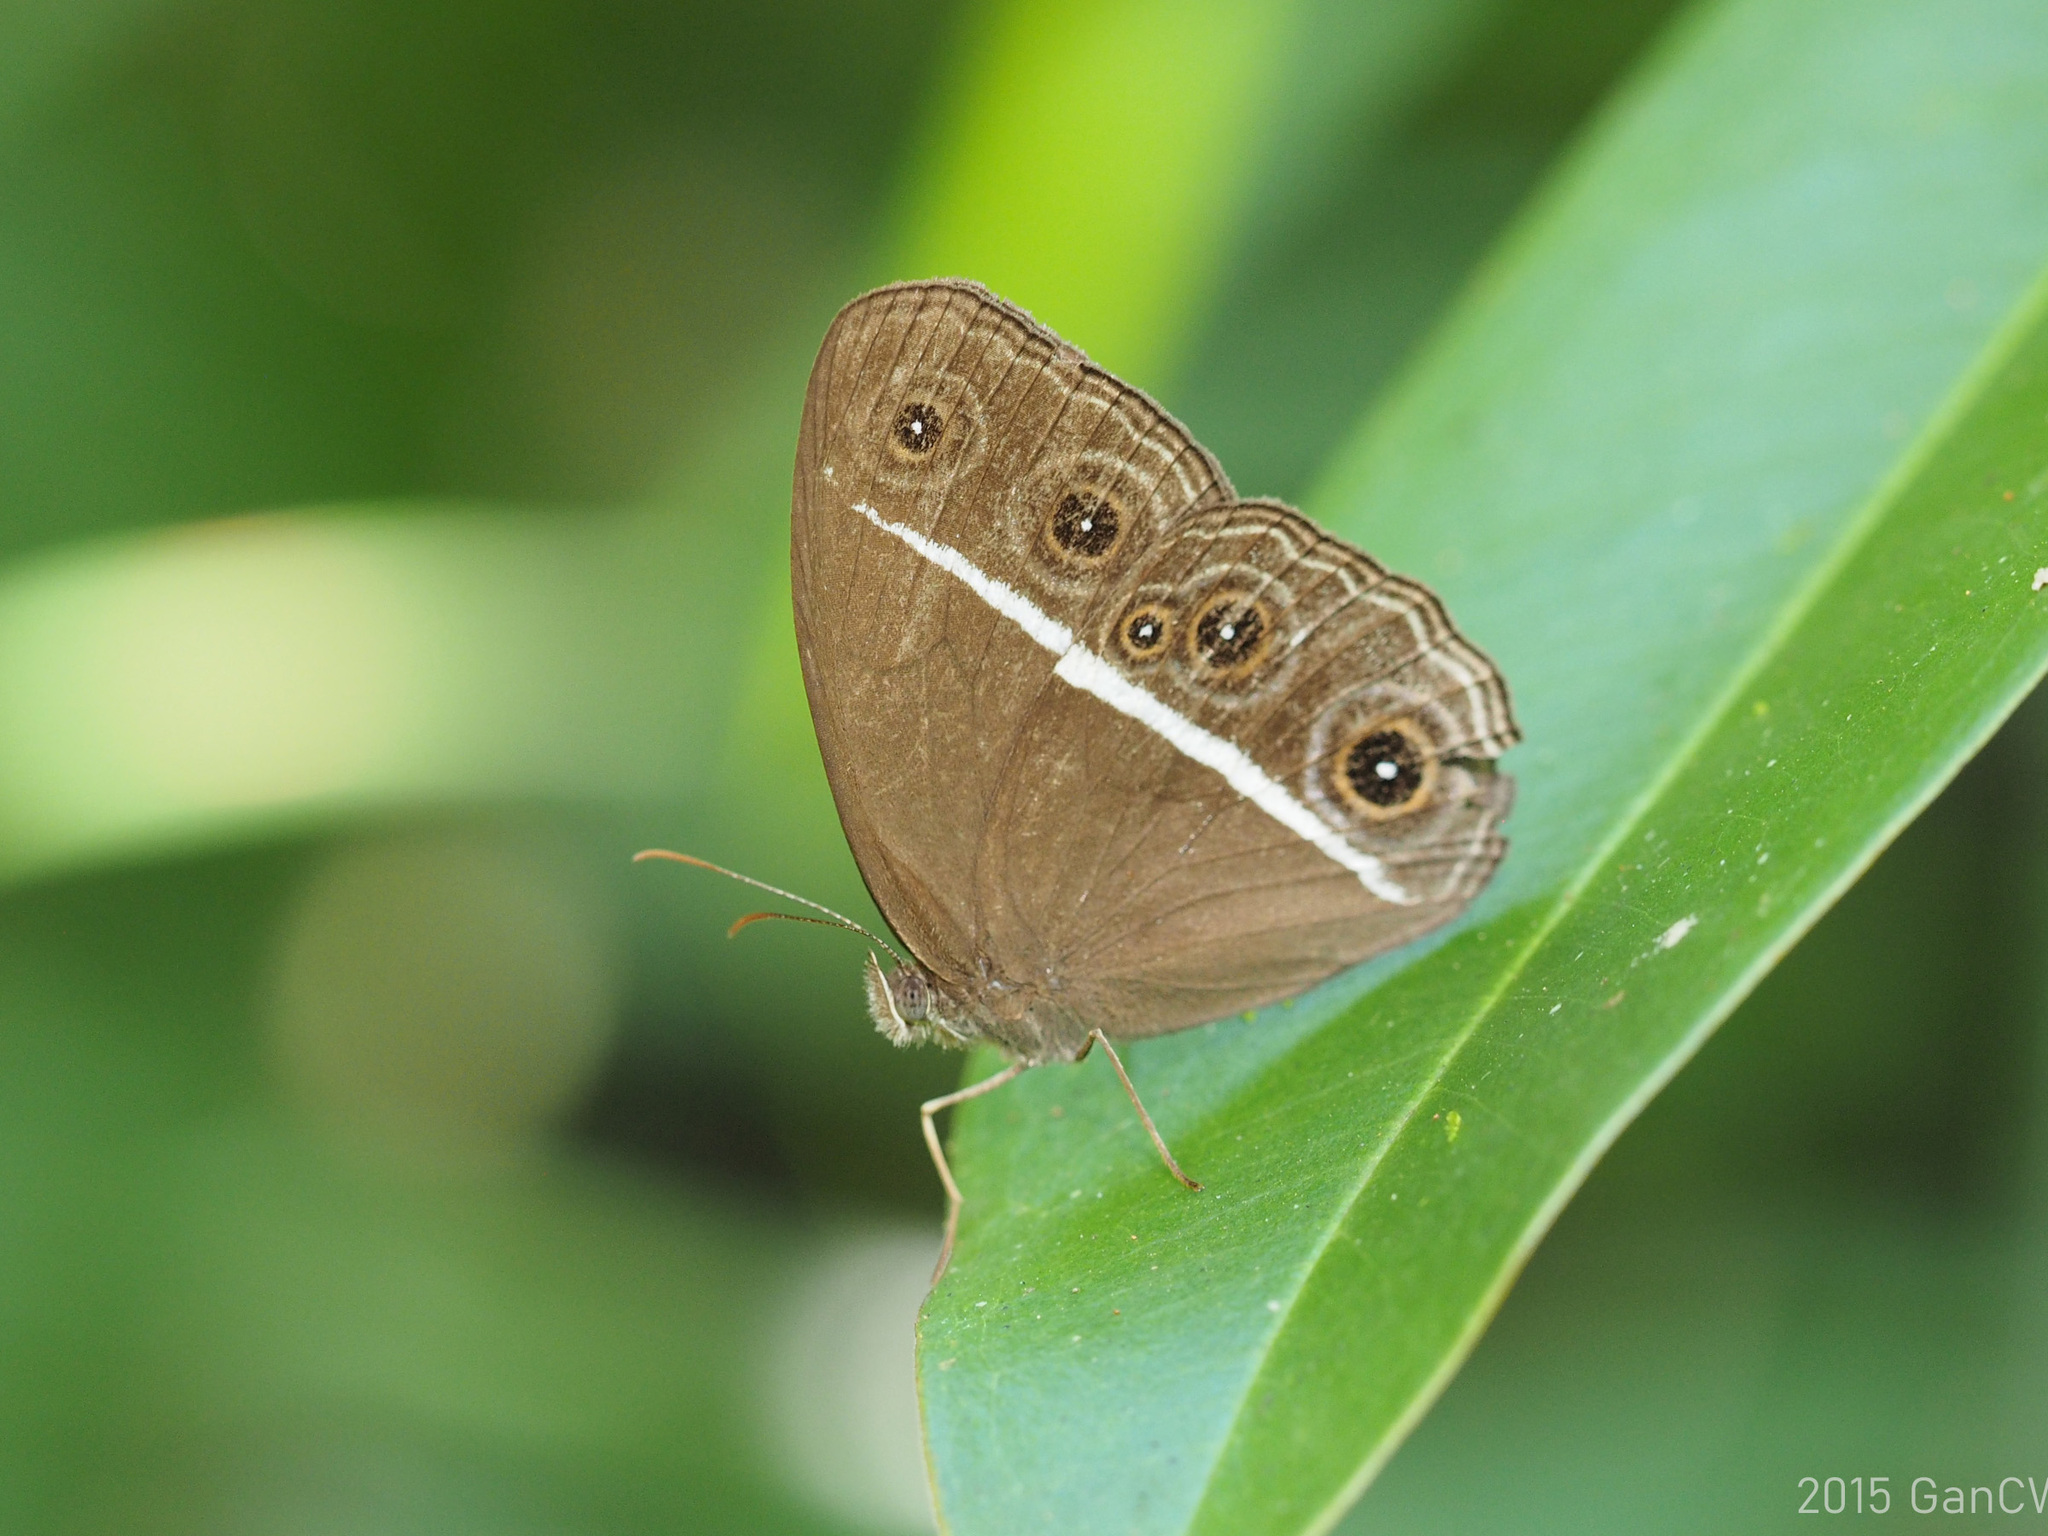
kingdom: Animalia
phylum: Arthropoda
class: Insecta
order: Lepidoptera
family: Nymphalidae
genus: Orsotriaena
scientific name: Orsotriaena medus
